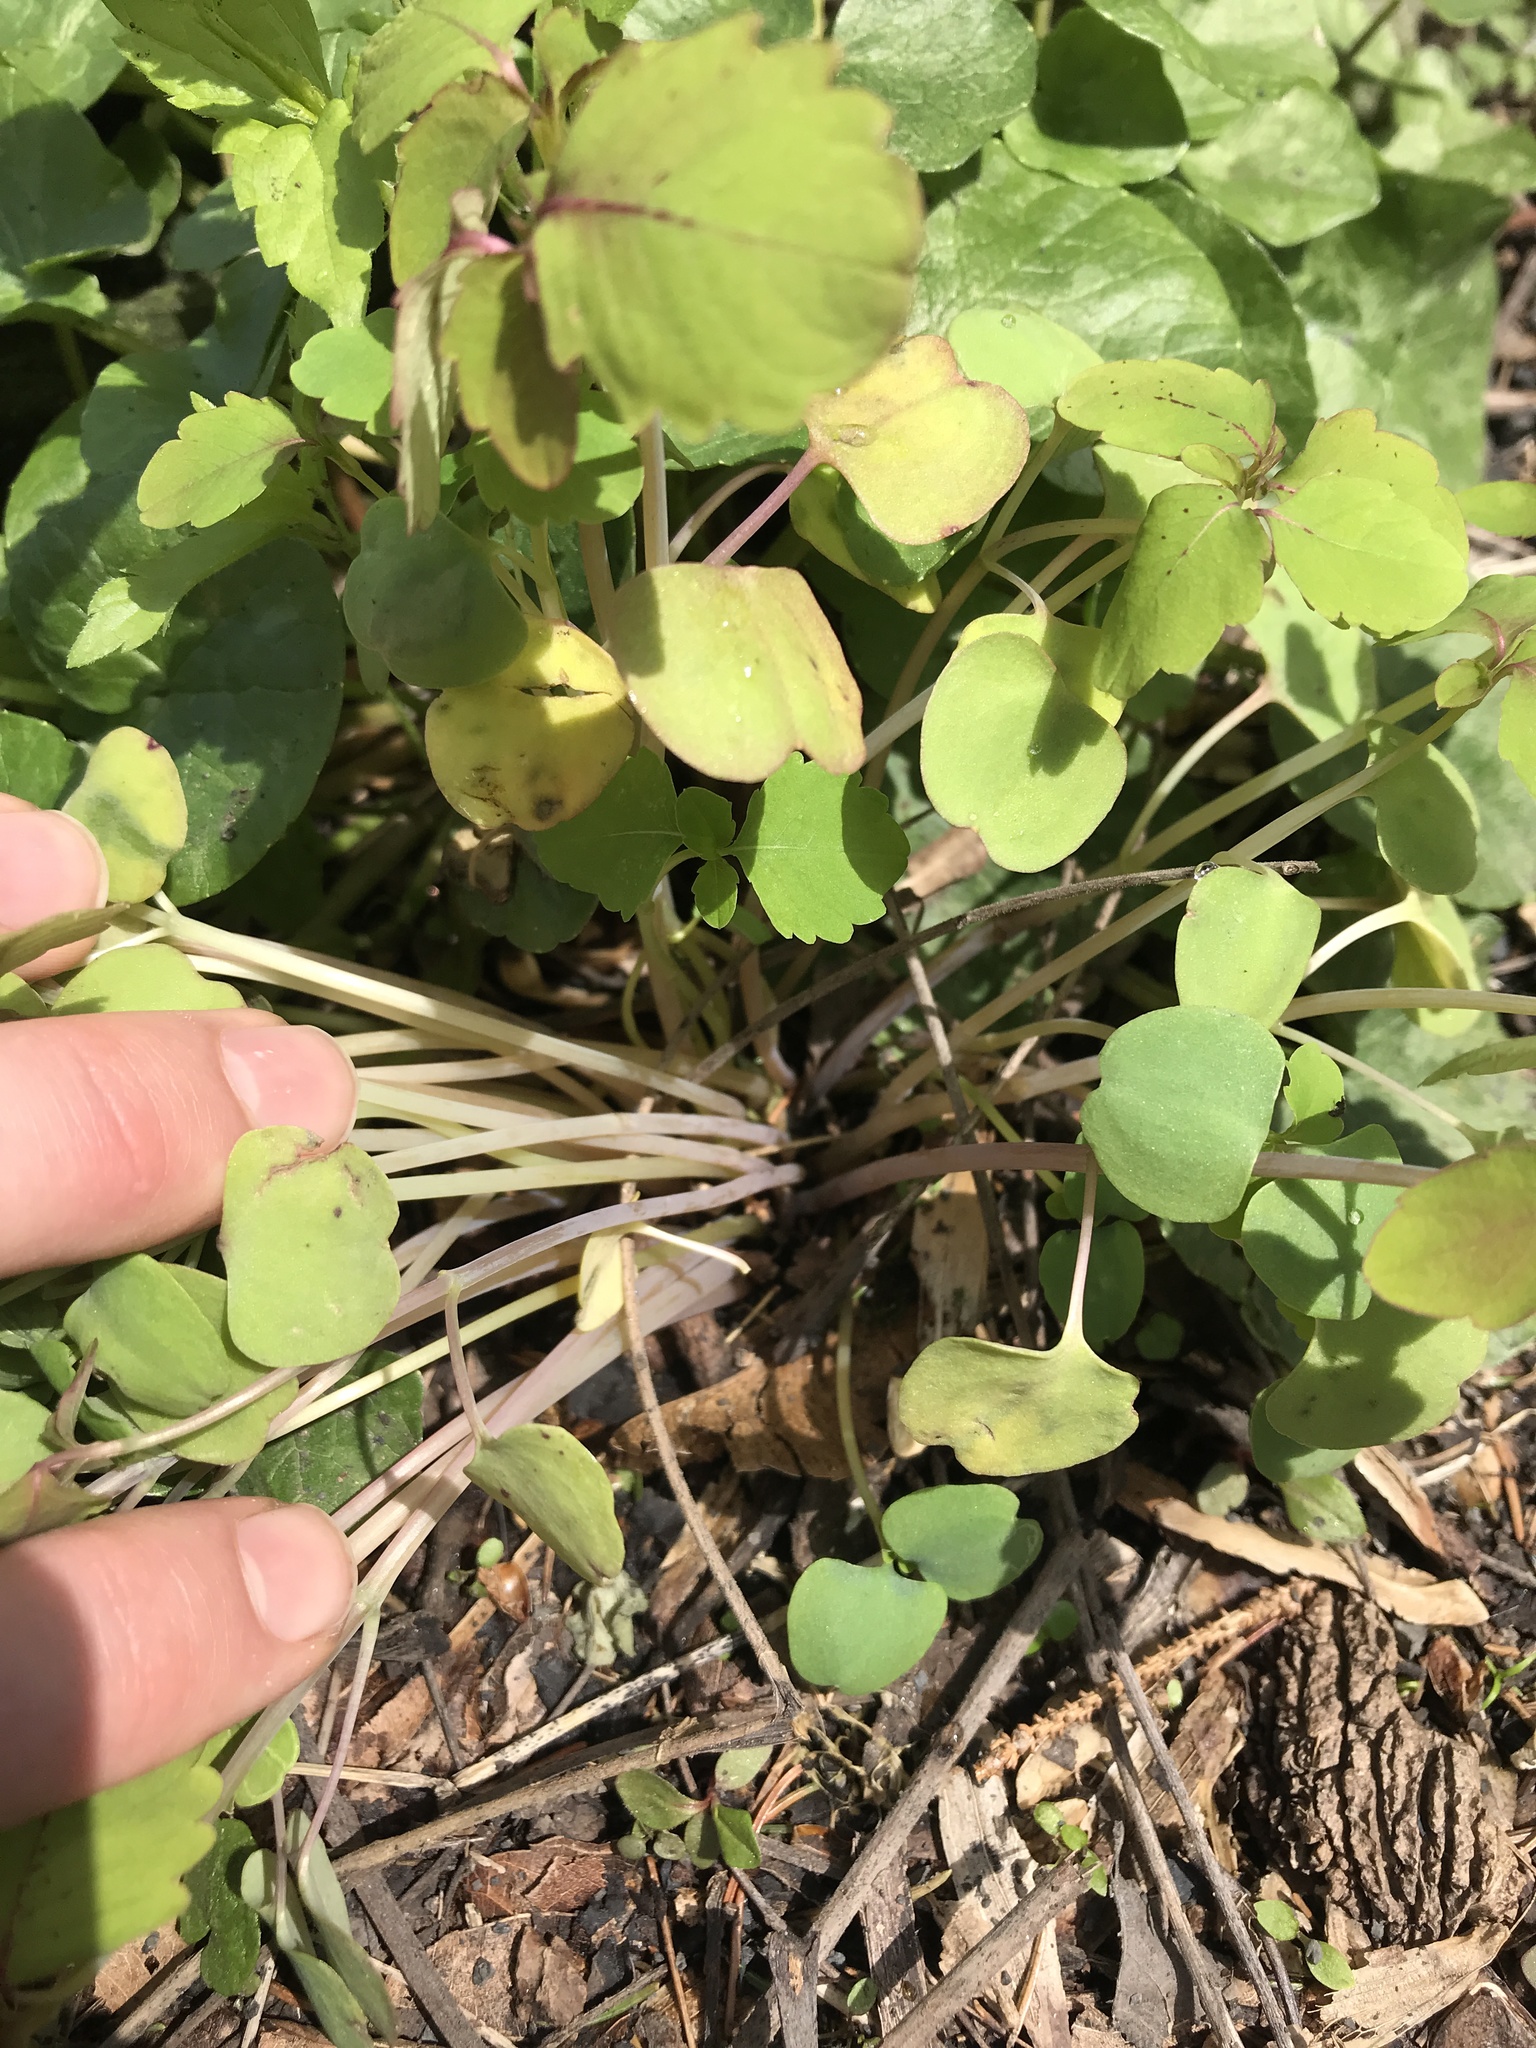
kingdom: Plantae
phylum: Tracheophyta
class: Magnoliopsida
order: Ericales
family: Balsaminaceae
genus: Impatiens
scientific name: Impatiens
